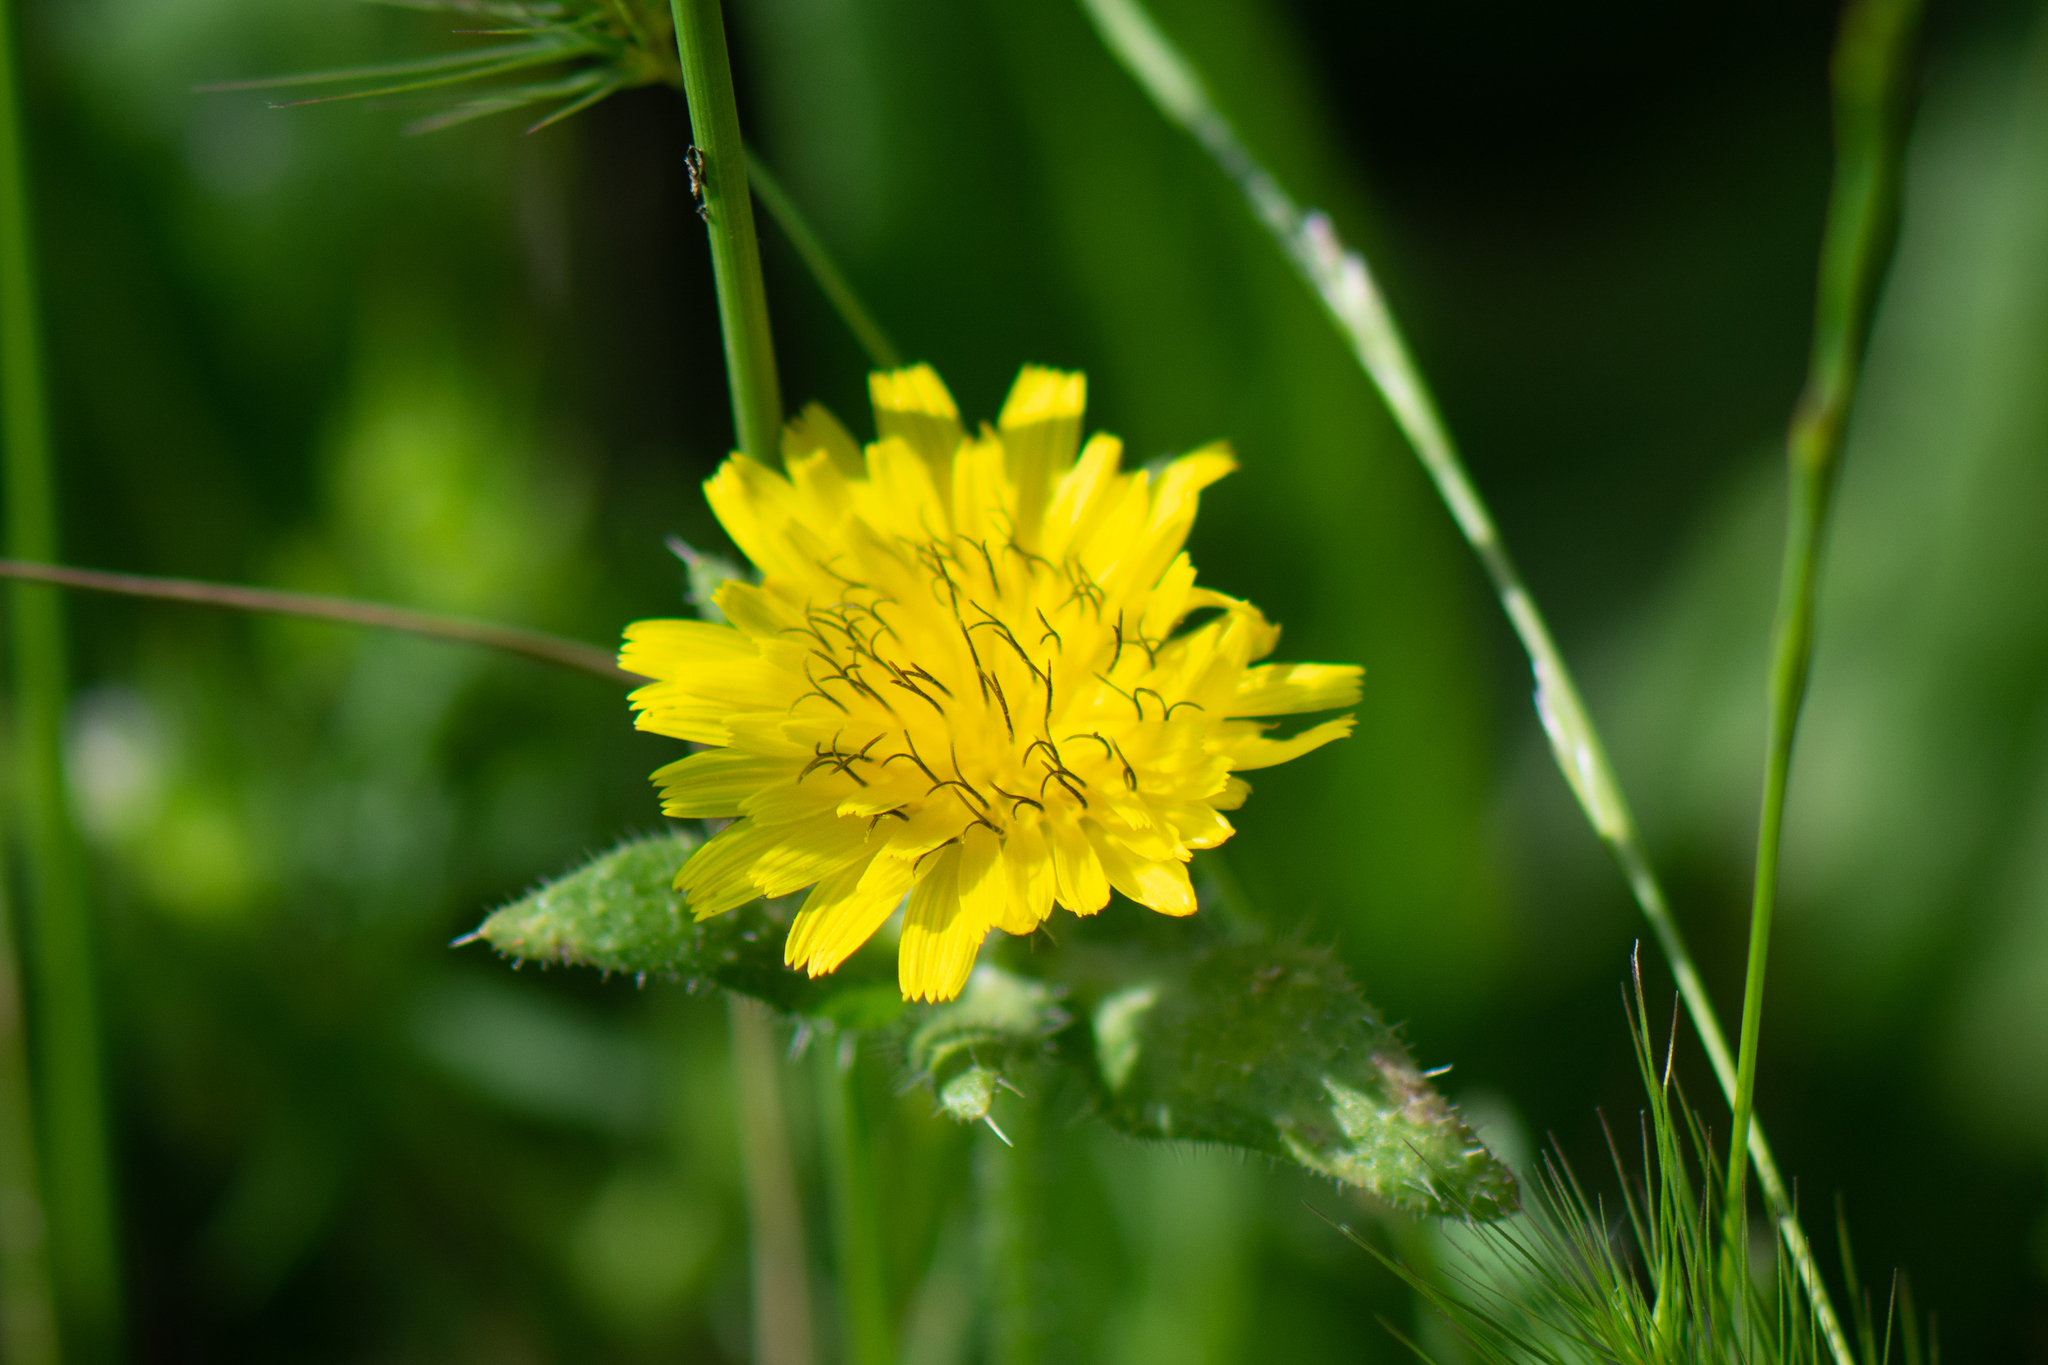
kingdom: Plantae
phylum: Tracheophyta
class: Magnoliopsida
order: Asterales
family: Asteraceae
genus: Helminthotheca
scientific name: Helminthotheca echioides
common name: Ox-tongue
